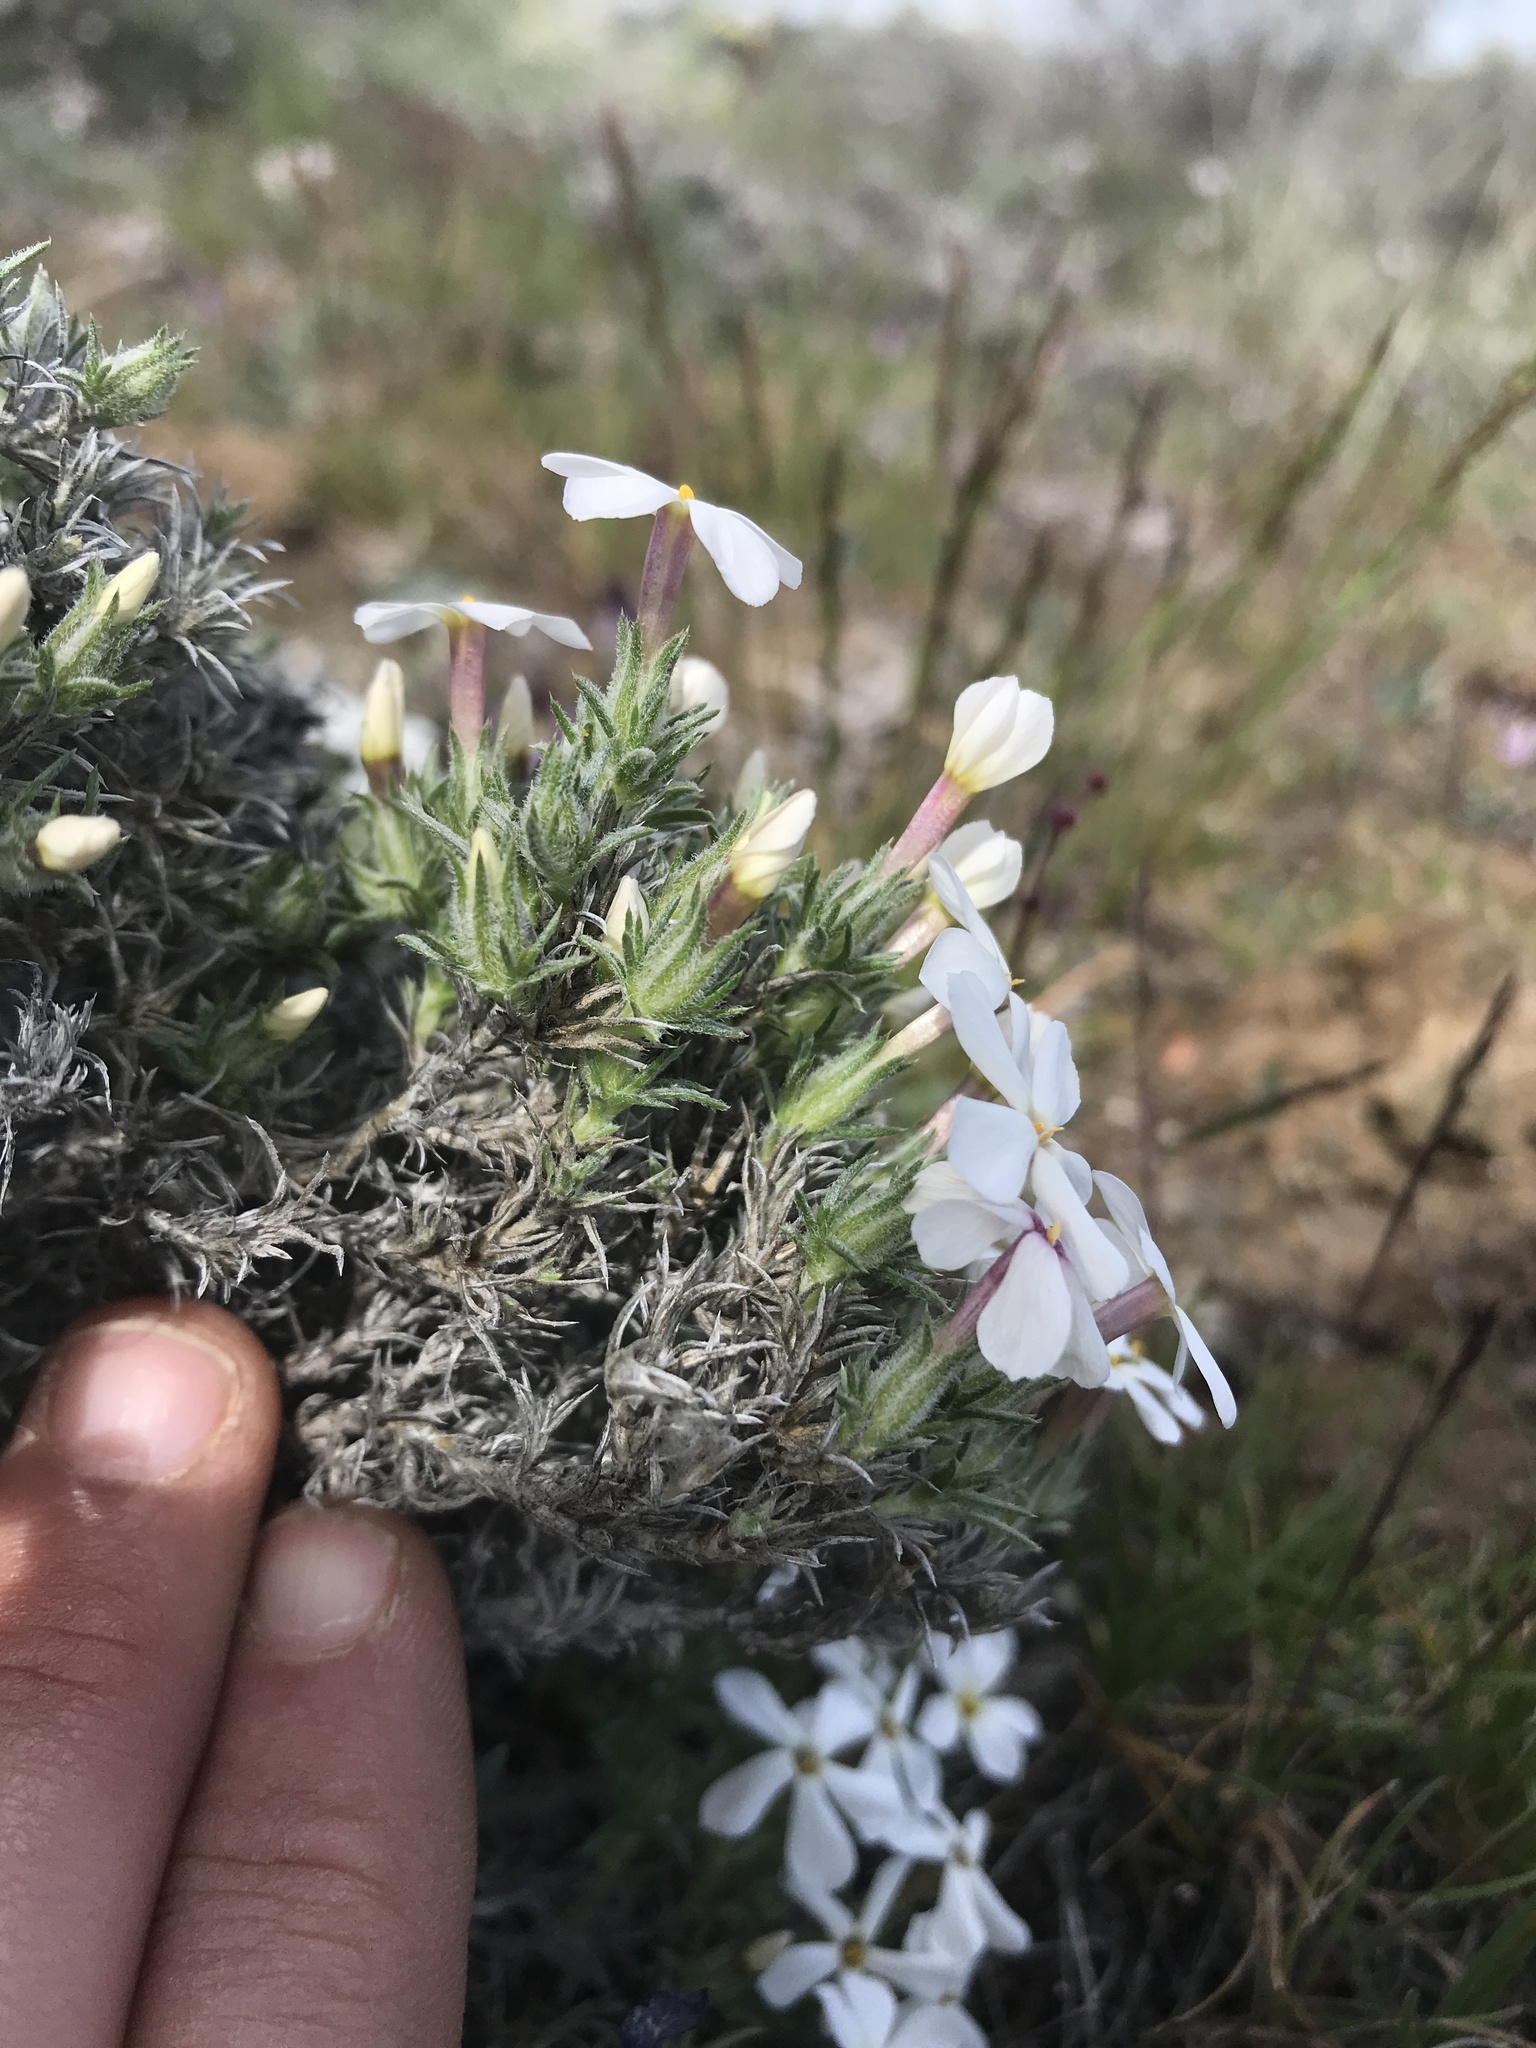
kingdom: Plantae
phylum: Tracheophyta
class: Magnoliopsida
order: Ericales
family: Polemoniaceae
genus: Phlox
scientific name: Phlox hoodii
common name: Moss phlox
